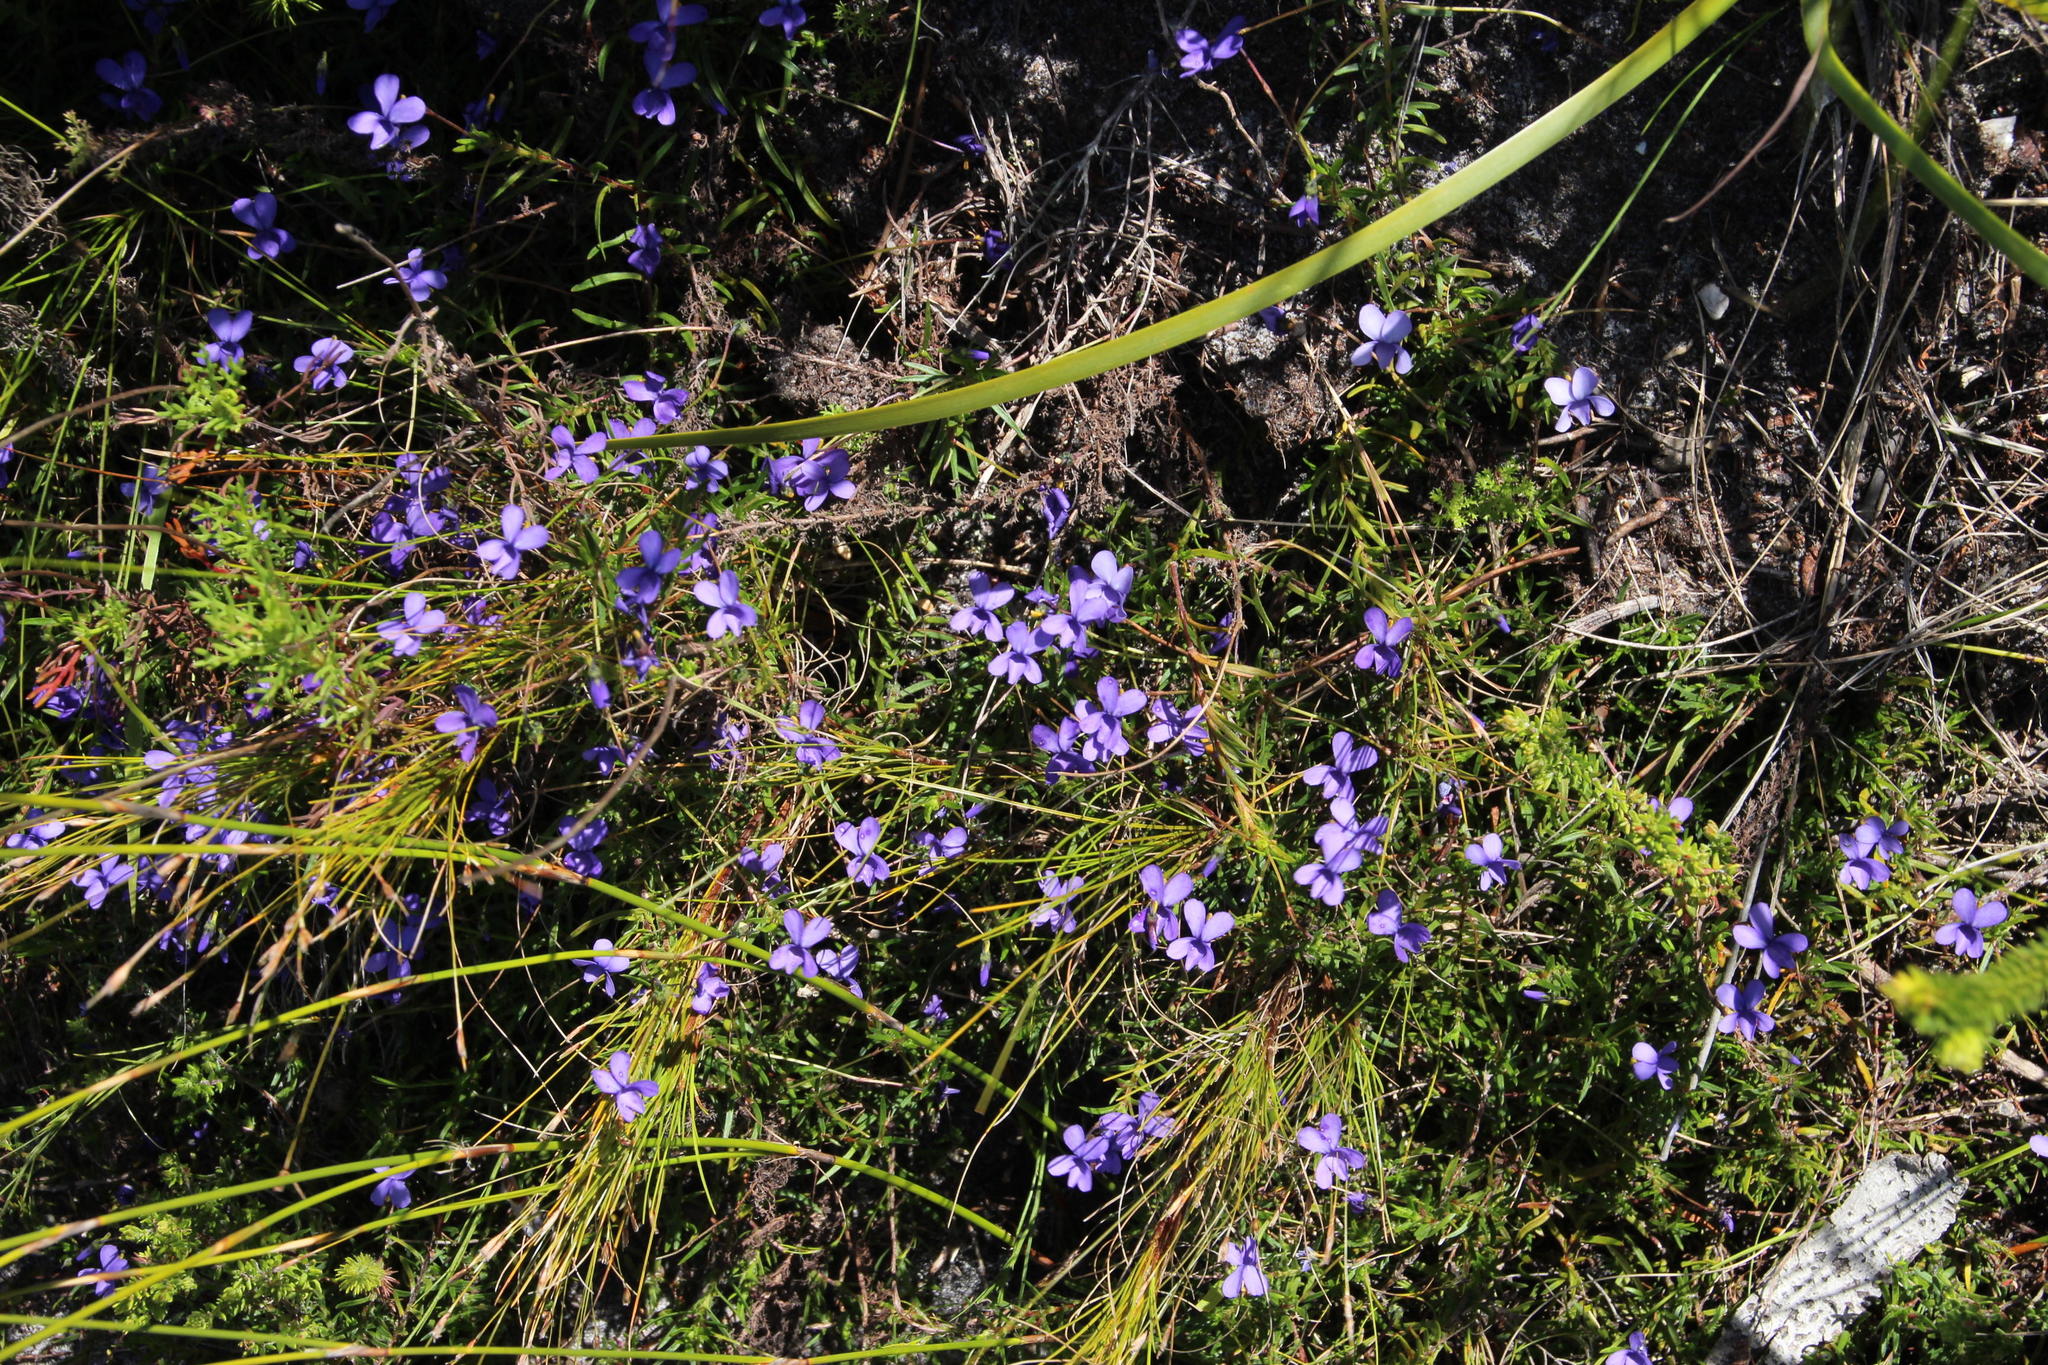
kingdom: Plantae
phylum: Tracheophyta
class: Magnoliopsida
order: Malpighiales
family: Violaceae
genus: Viola
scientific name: Viola decumbens
